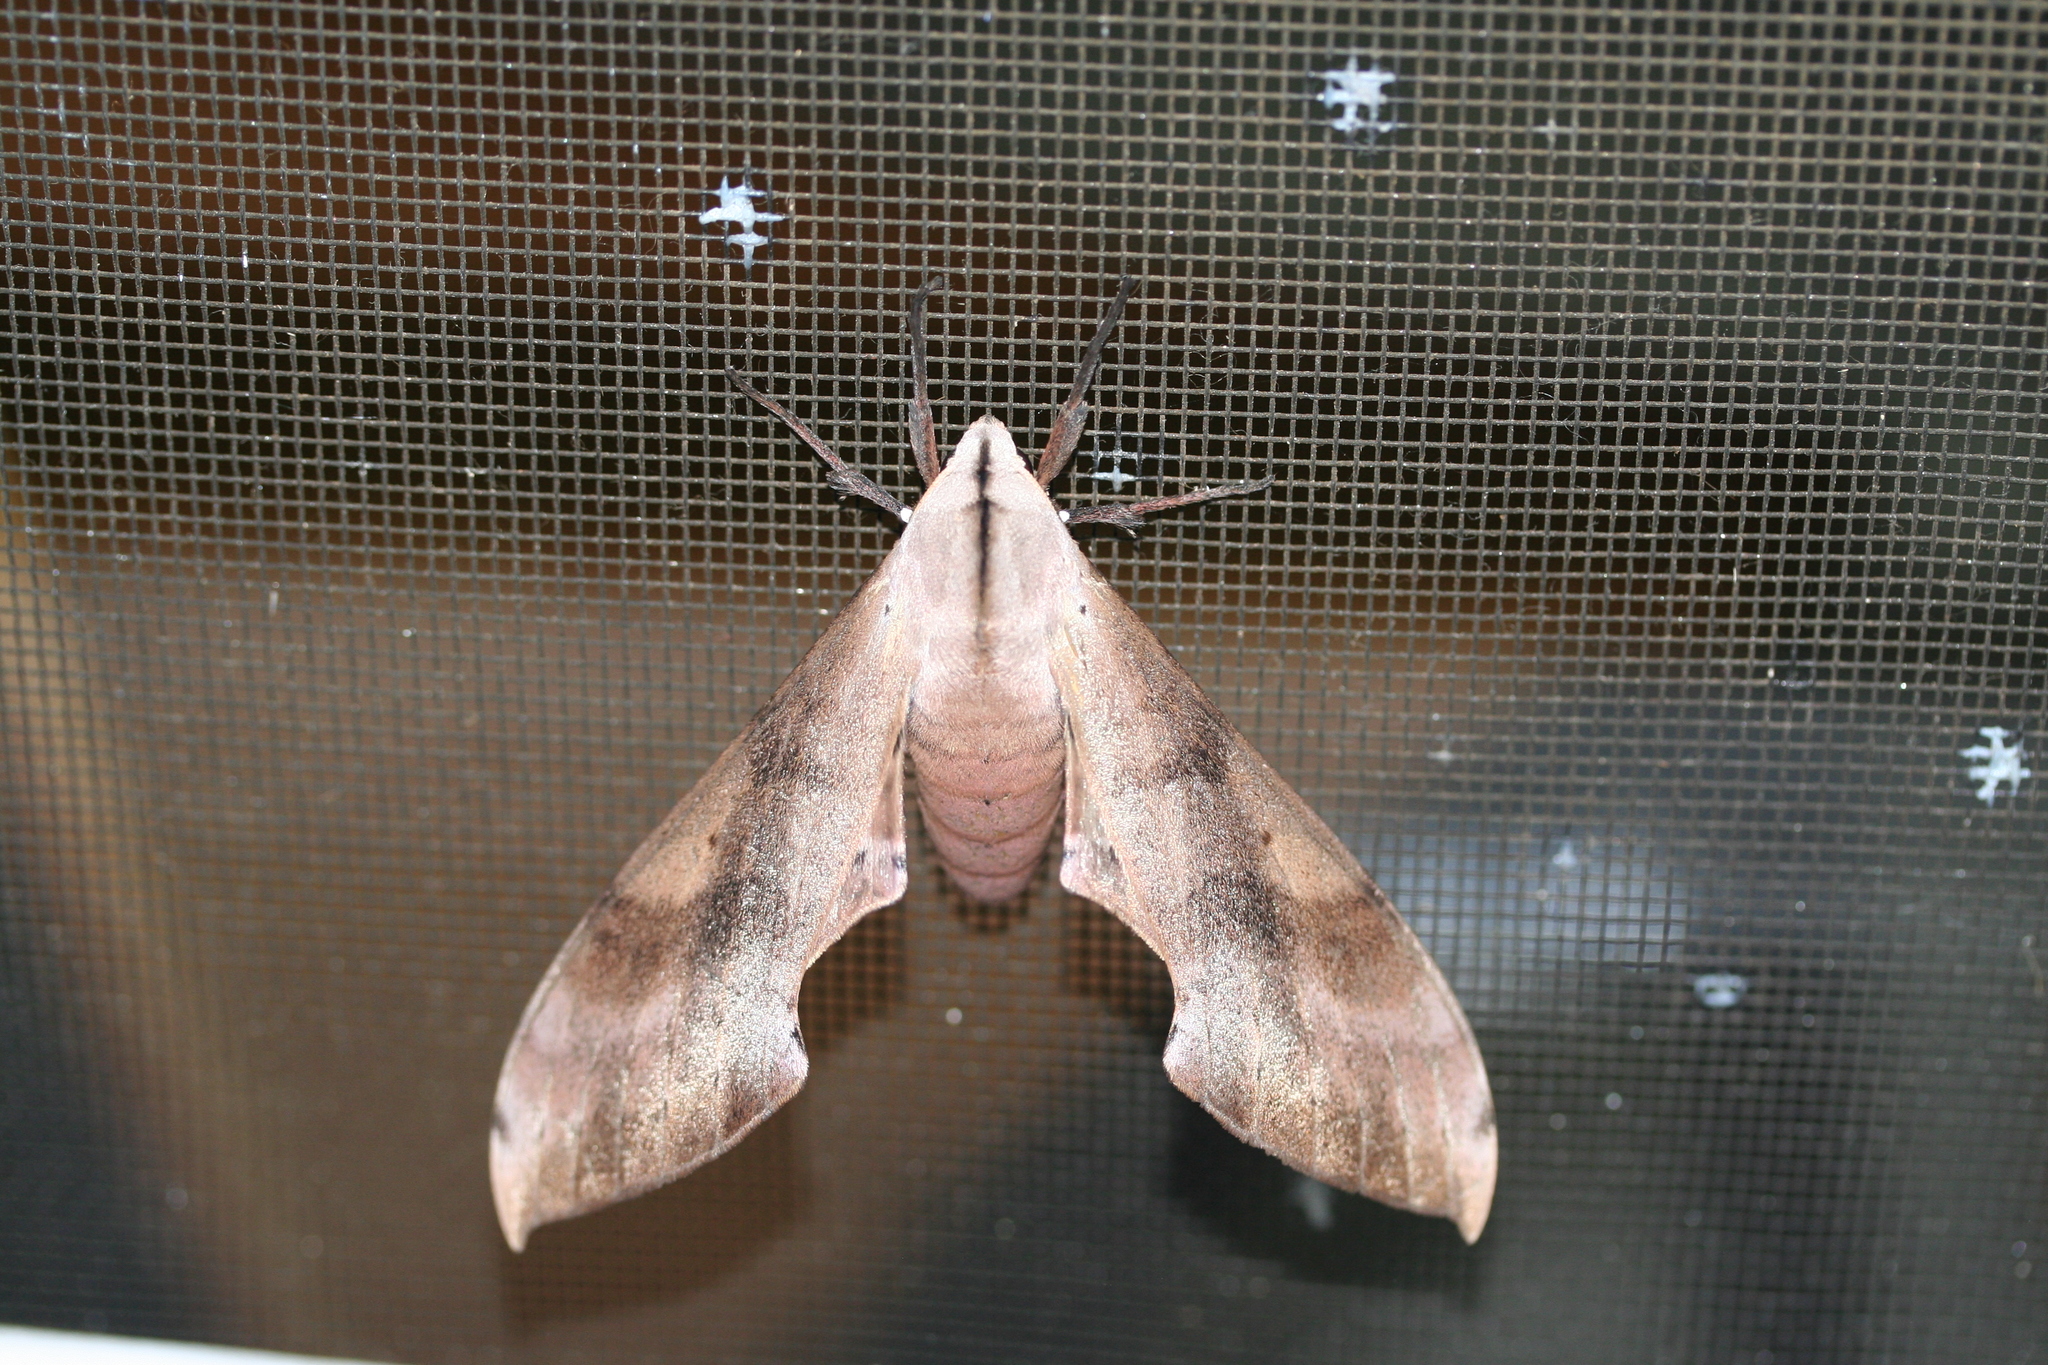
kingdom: Animalia
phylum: Arthropoda
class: Insecta
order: Lepidoptera
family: Sphingidae
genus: Dargeclanis
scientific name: Dargeclanis grandidieri
